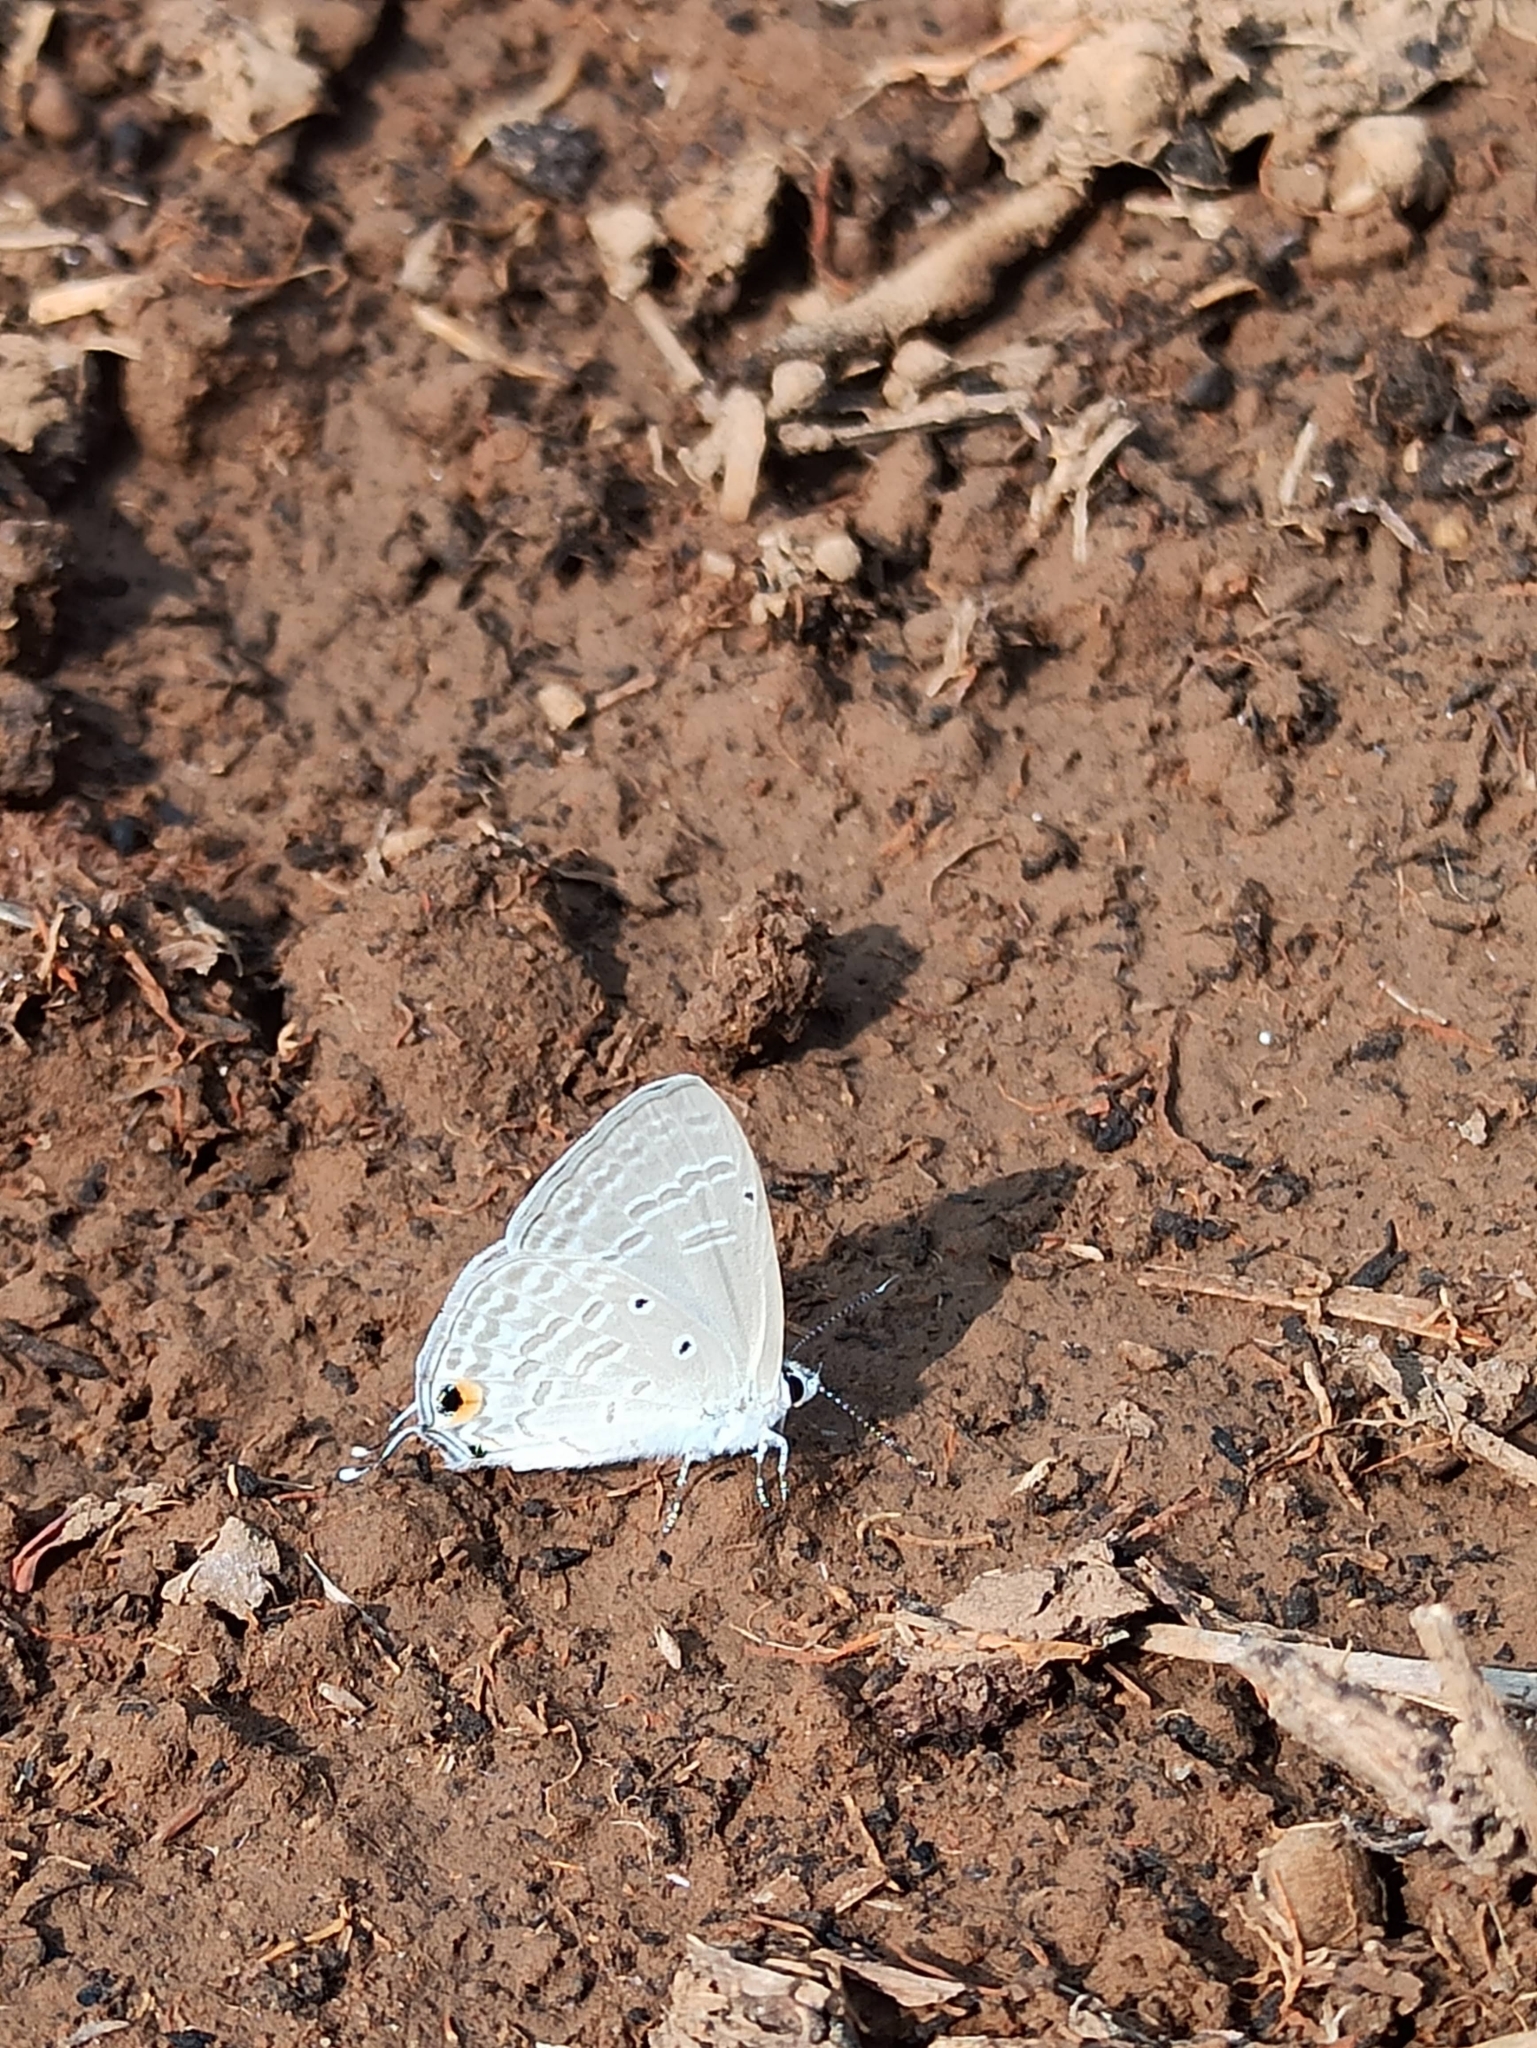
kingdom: Animalia
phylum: Arthropoda
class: Insecta
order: Lepidoptera
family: Lycaenidae
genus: Catochrysops
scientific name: Catochrysops strabo
